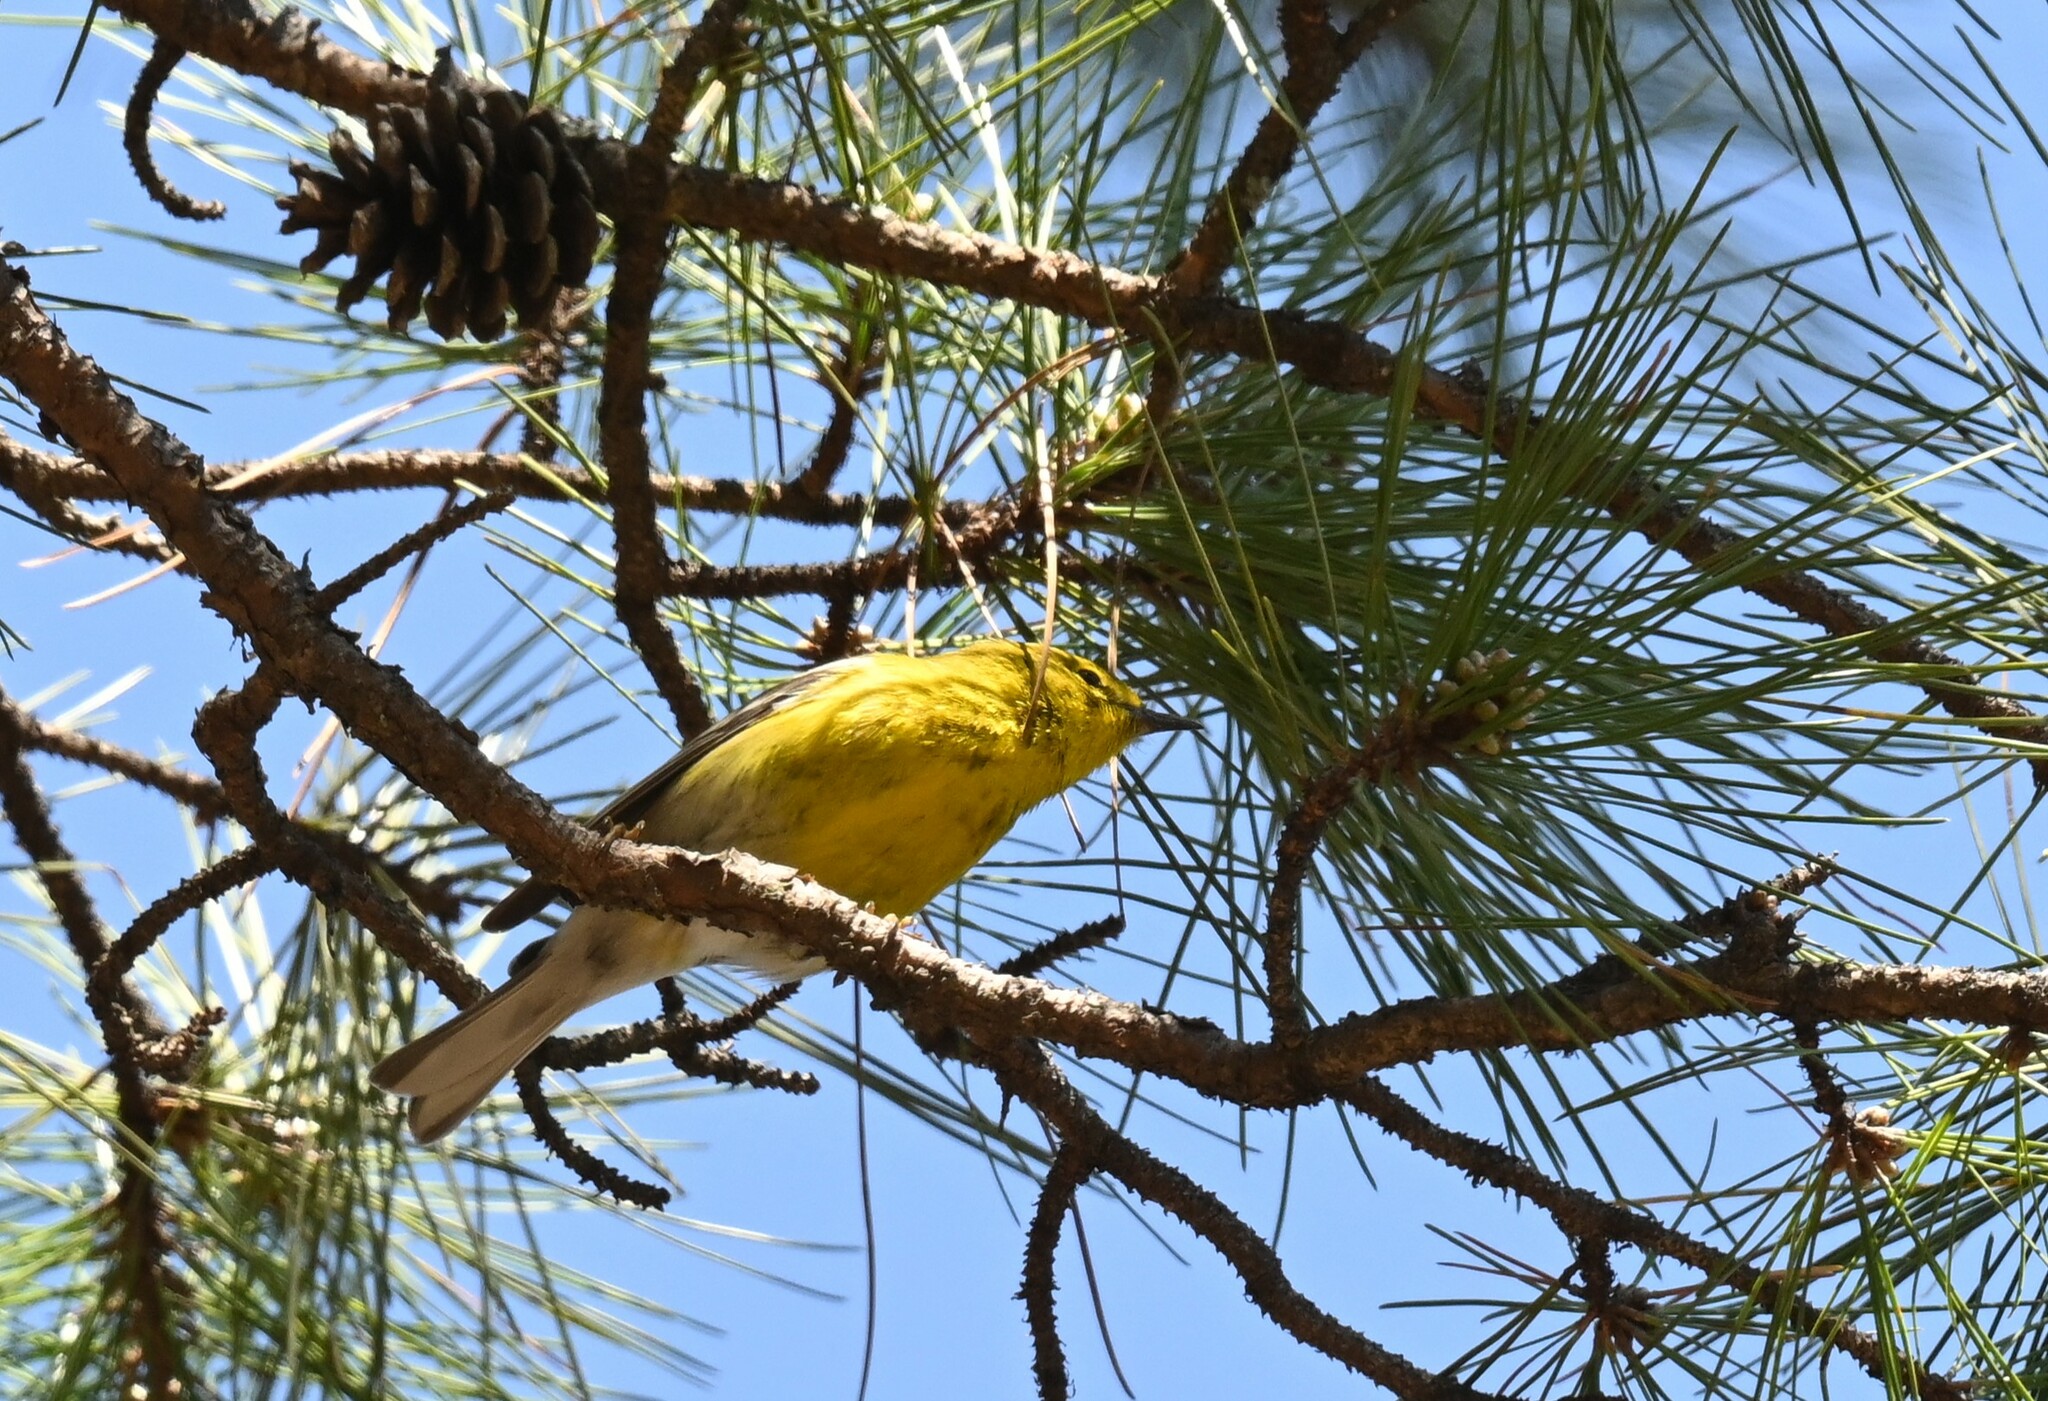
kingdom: Animalia
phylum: Chordata
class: Aves
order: Passeriformes
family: Parulidae
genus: Setophaga
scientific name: Setophaga pinus
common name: Pine warbler
